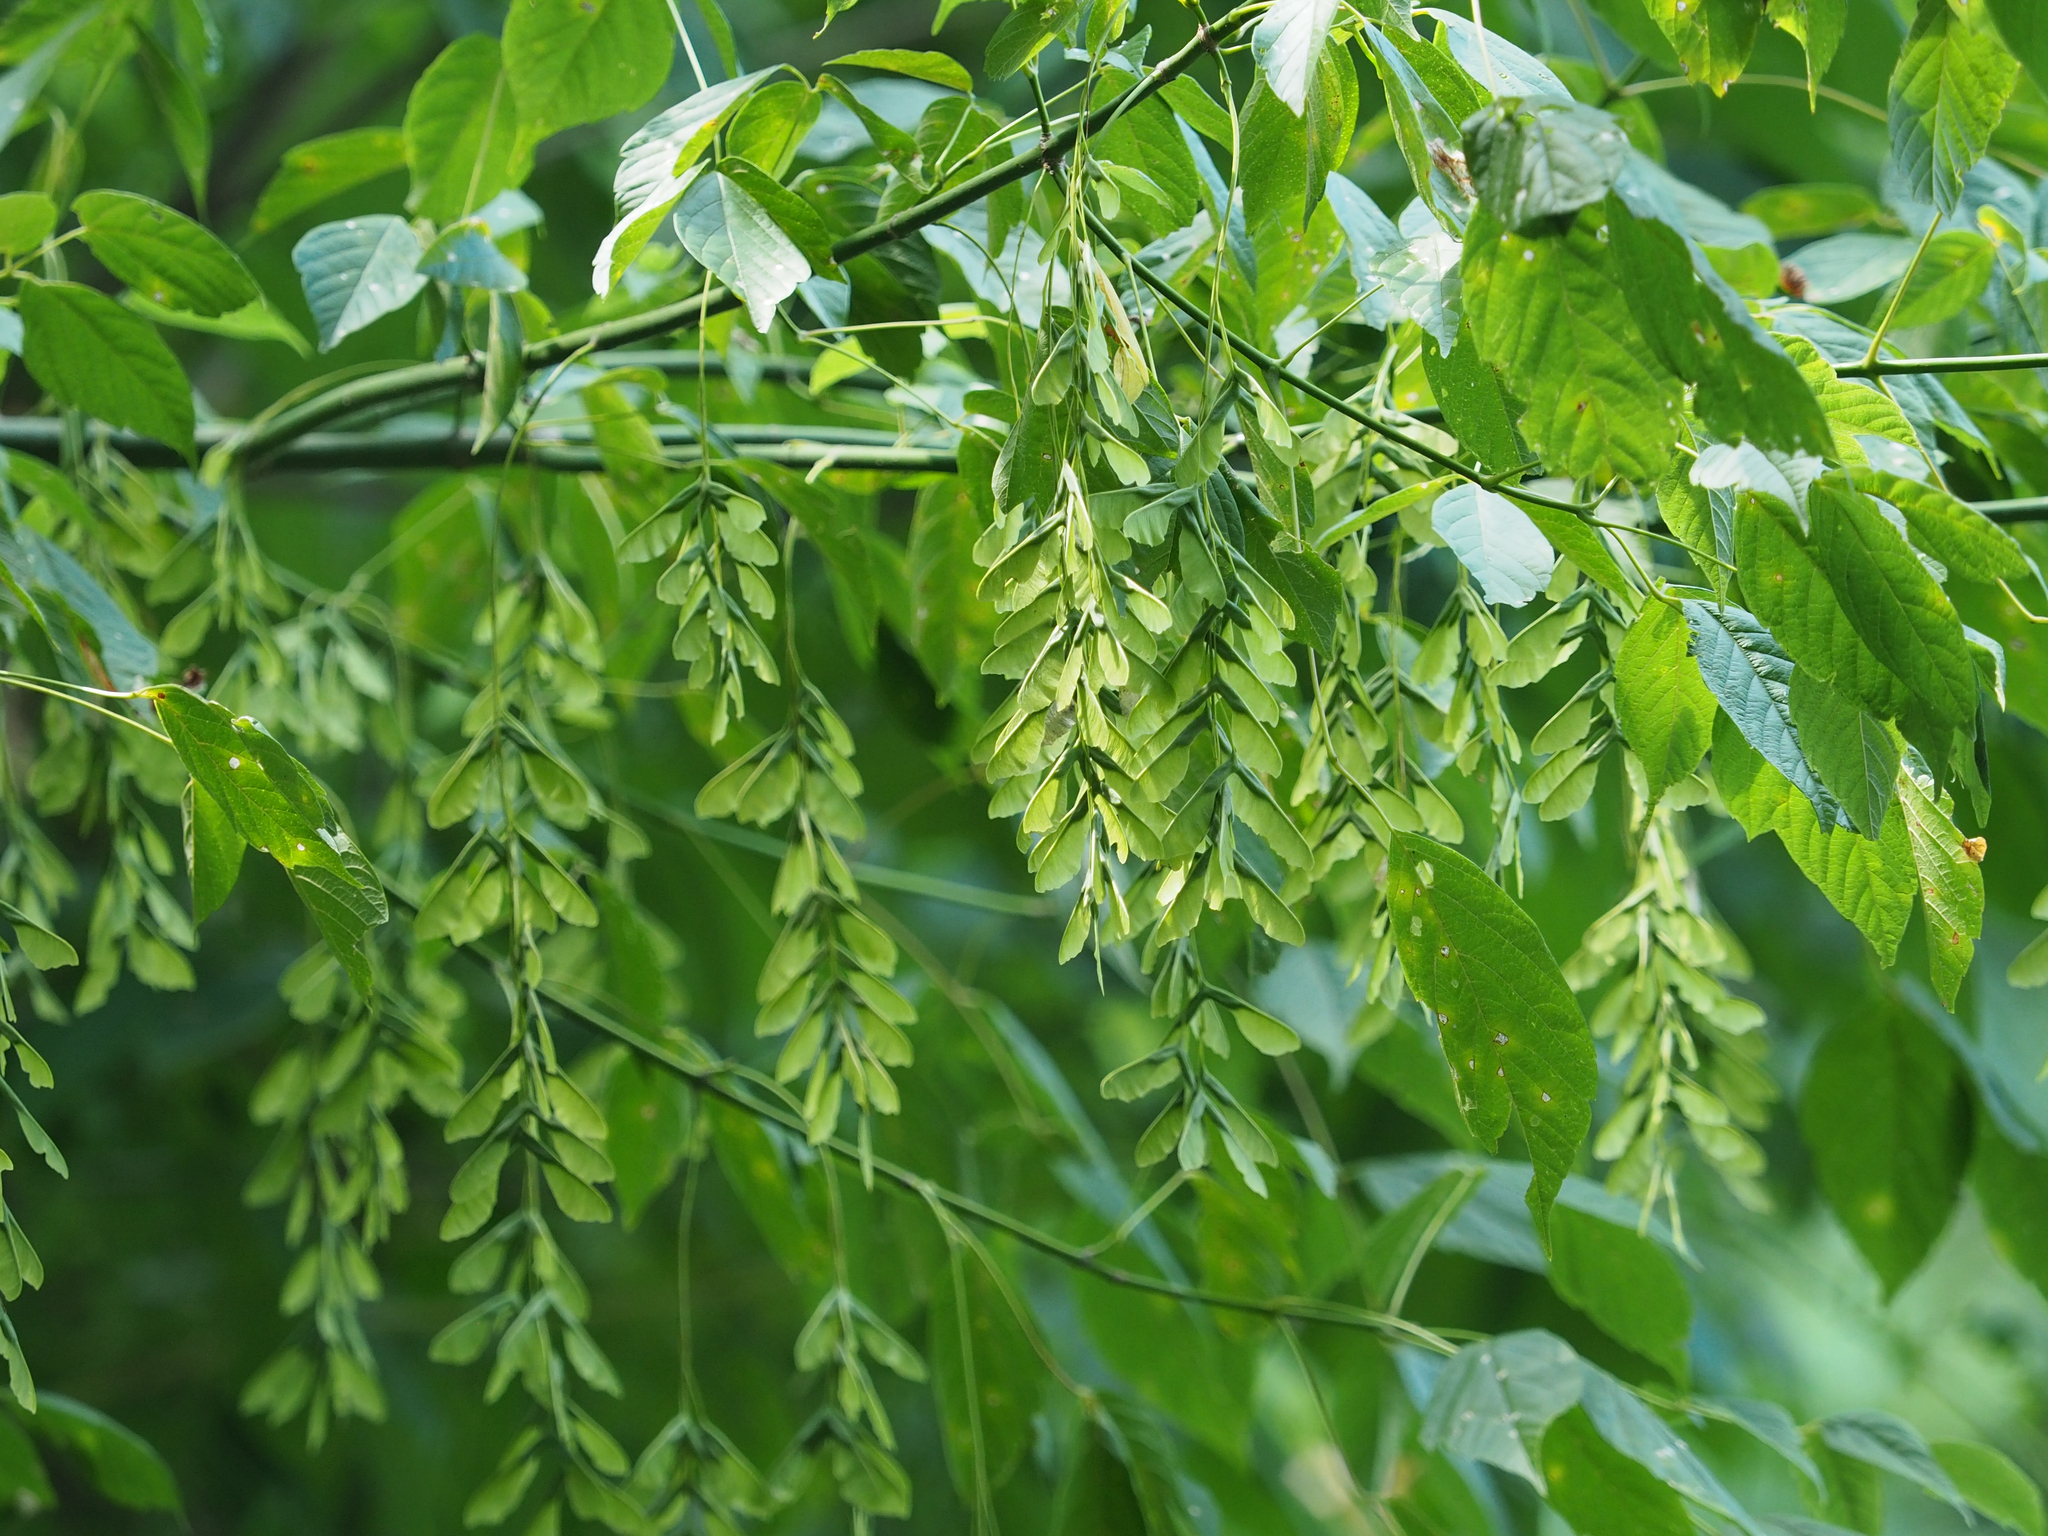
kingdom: Plantae
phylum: Tracheophyta
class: Magnoliopsida
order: Sapindales
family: Sapindaceae
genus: Acer
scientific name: Acer negundo
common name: Ashleaf maple
